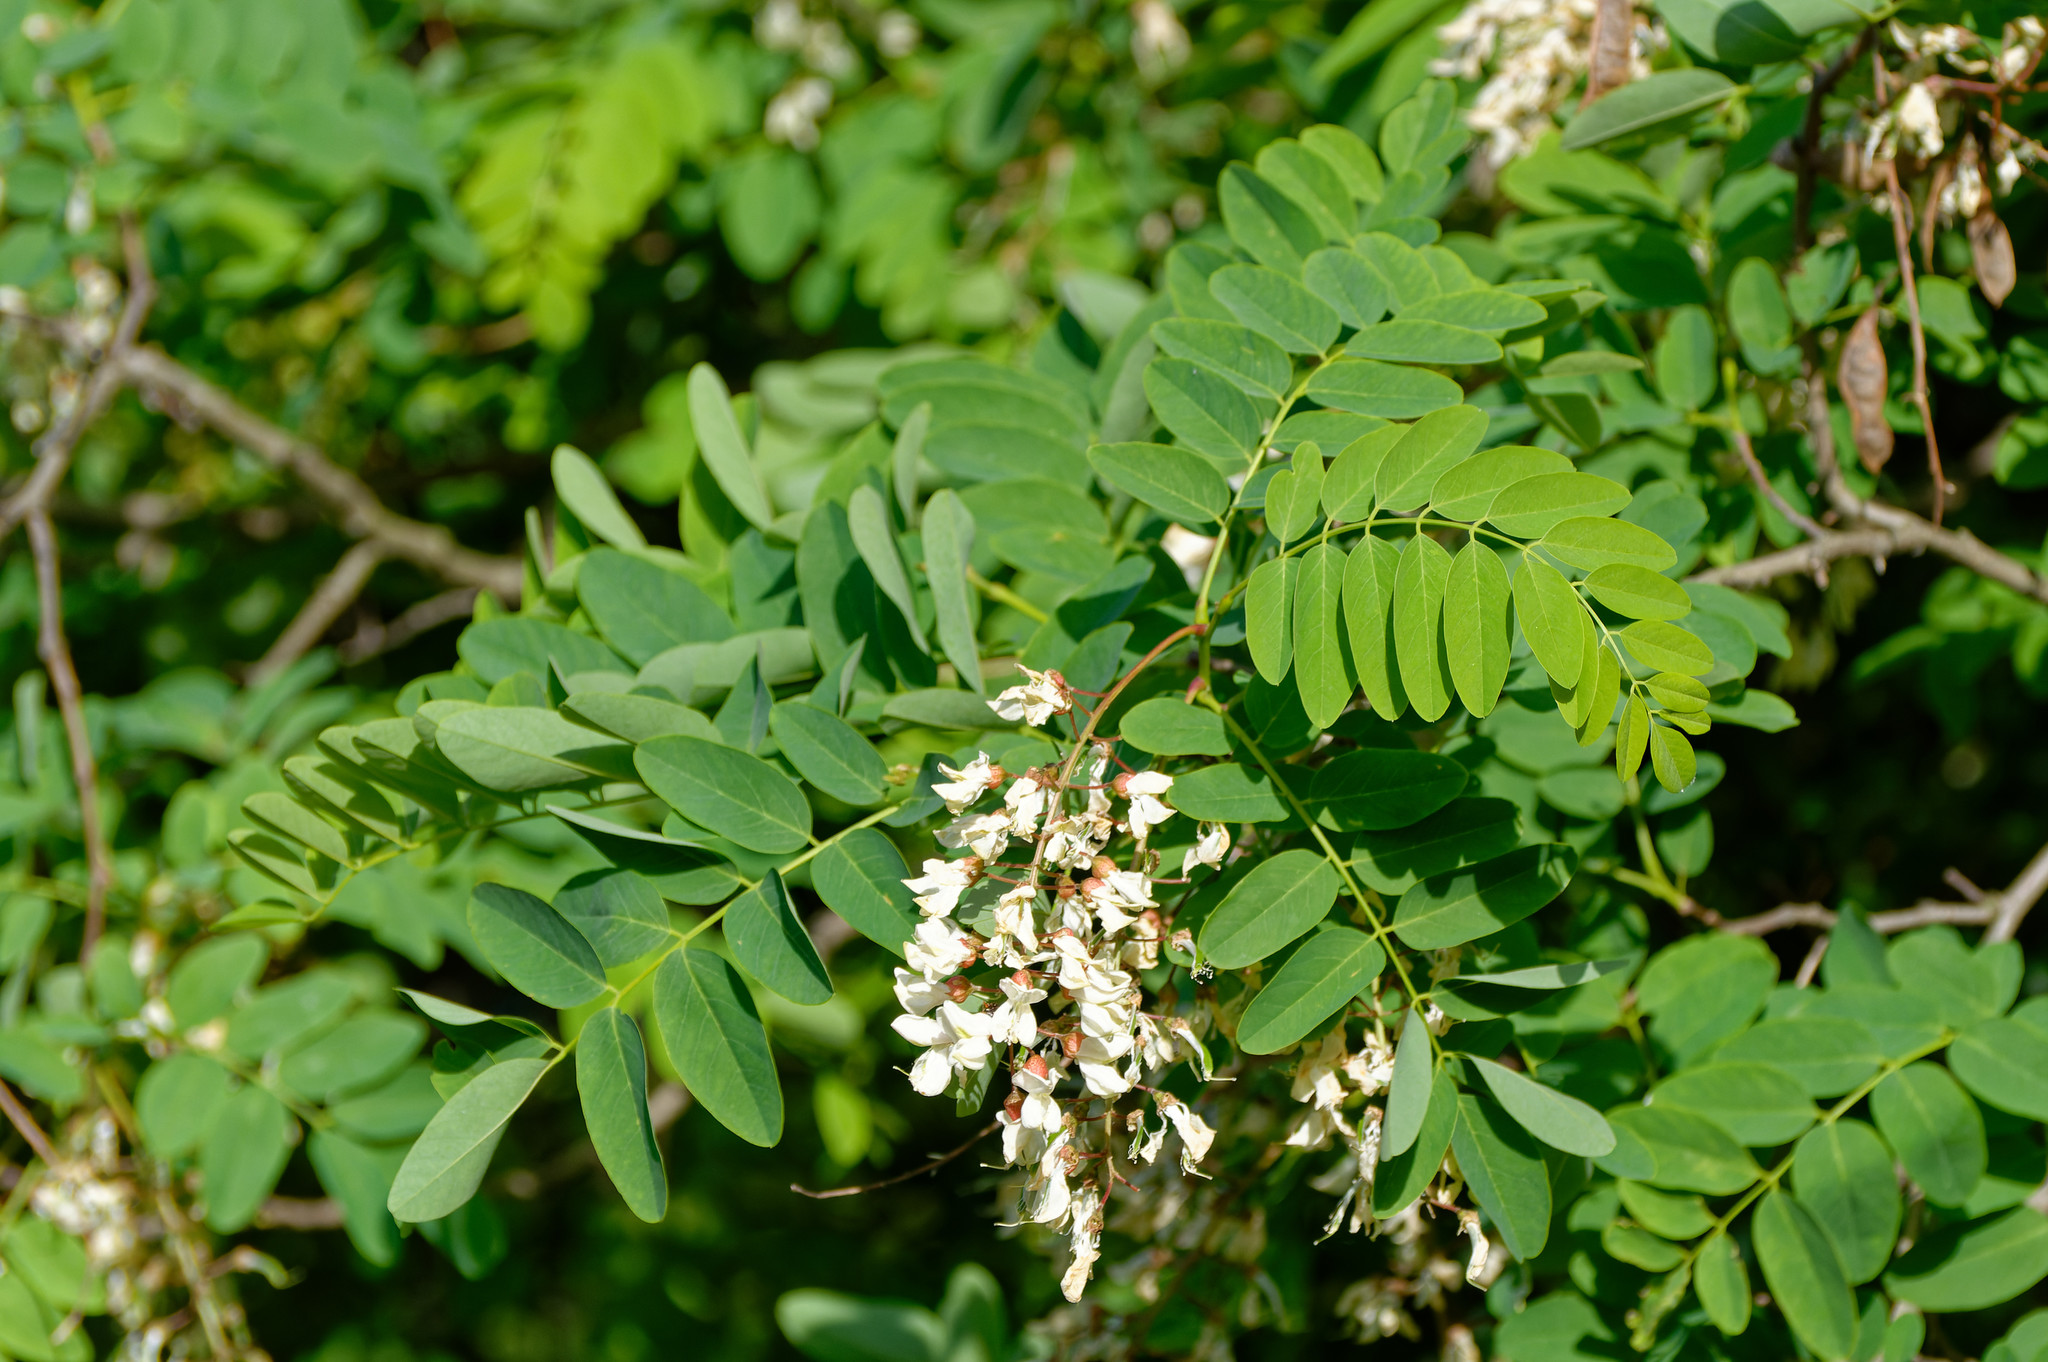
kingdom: Plantae
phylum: Tracheophyta
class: Magnoliopsida
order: Fabales
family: Fabaceae
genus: Robinia
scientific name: Robinia pseudoacacia
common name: Black locust
